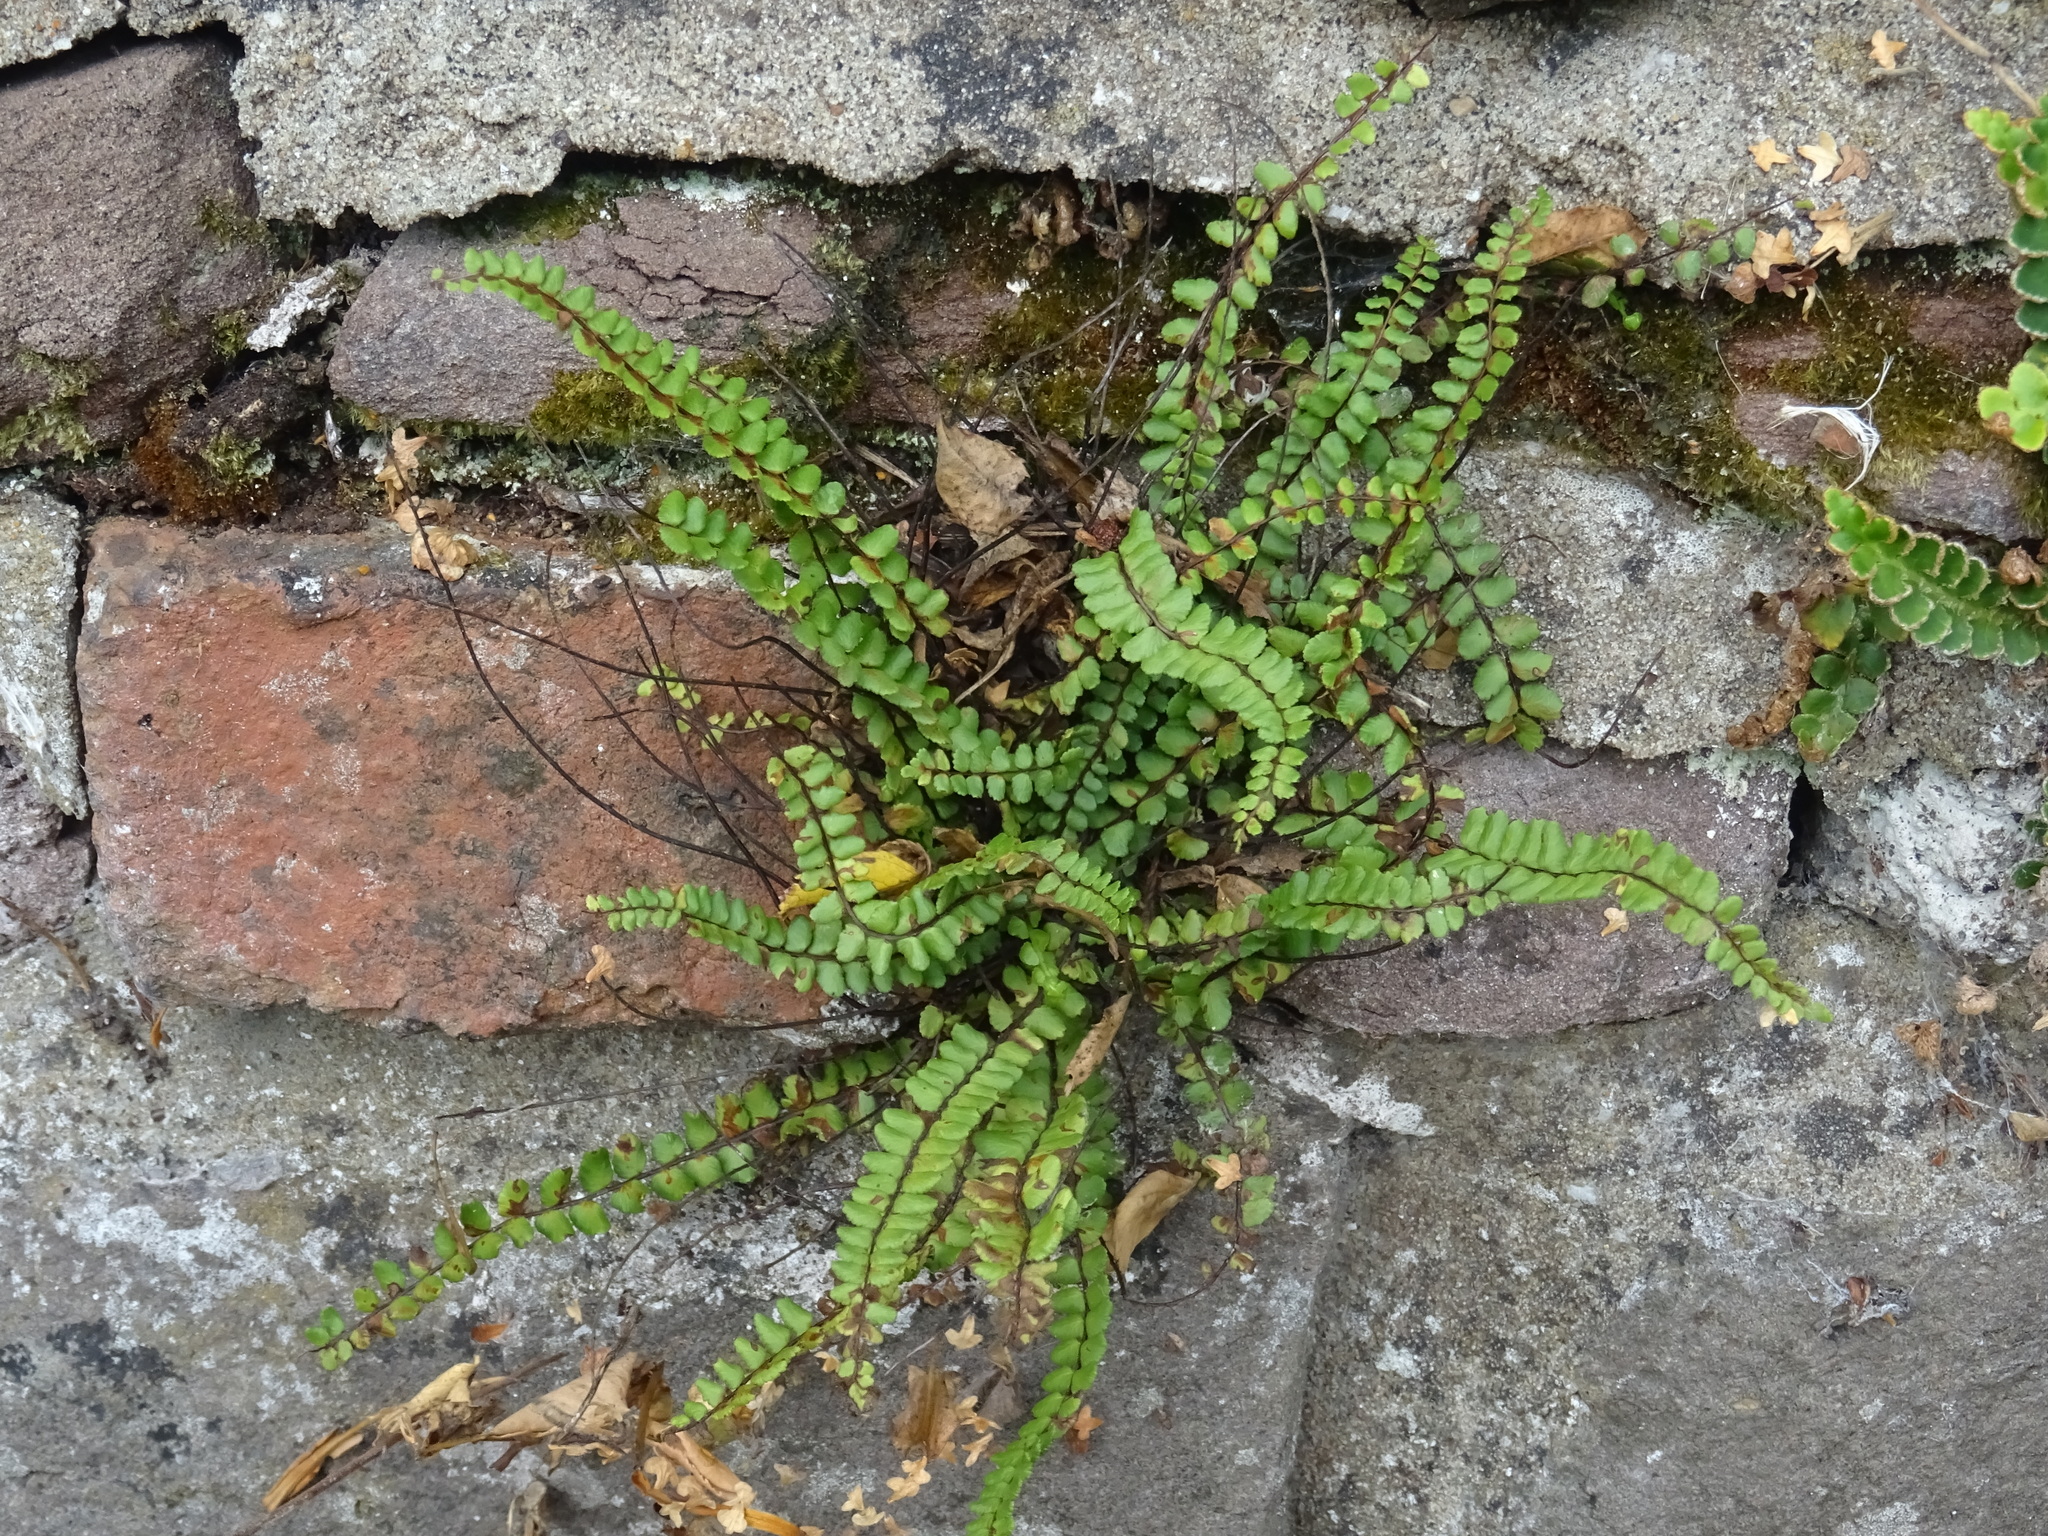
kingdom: Plantae
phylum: Tracheophyta
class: Polypodiopsida
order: Polypodiales
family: Aspleniaceae
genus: Asplenium
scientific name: Asplenium trichomanes
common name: Maidenhair spleenwort
